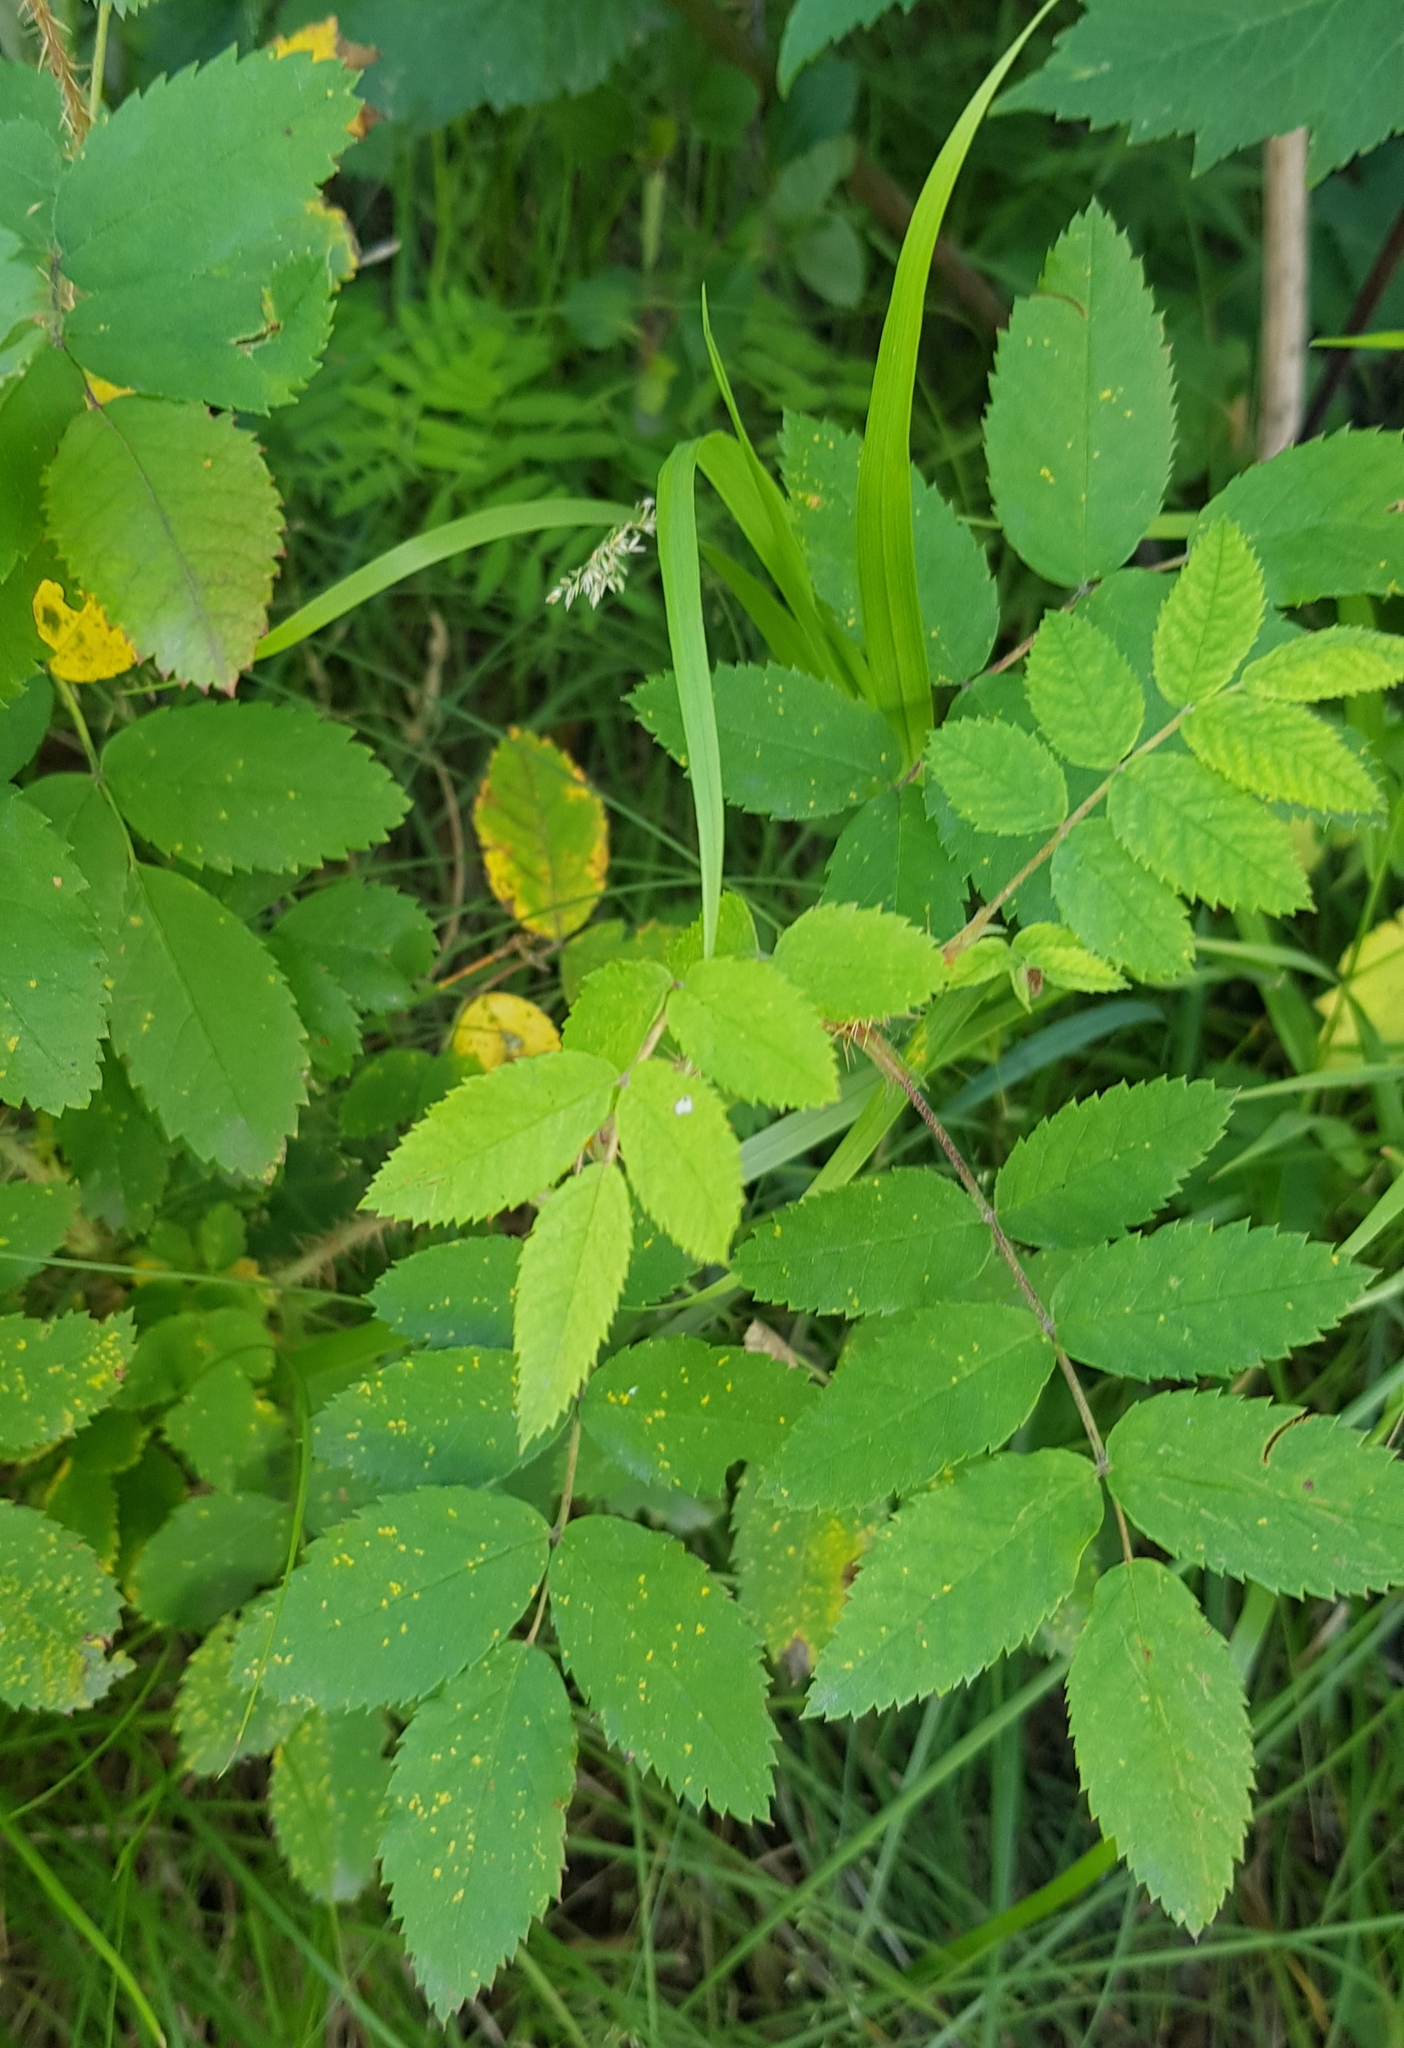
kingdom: Plantae
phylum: Tracheophyta
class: Magnoliopsida
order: Rosales
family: Rosaceae
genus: Rosa
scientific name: Rosa acicularis
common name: Prickly rose
